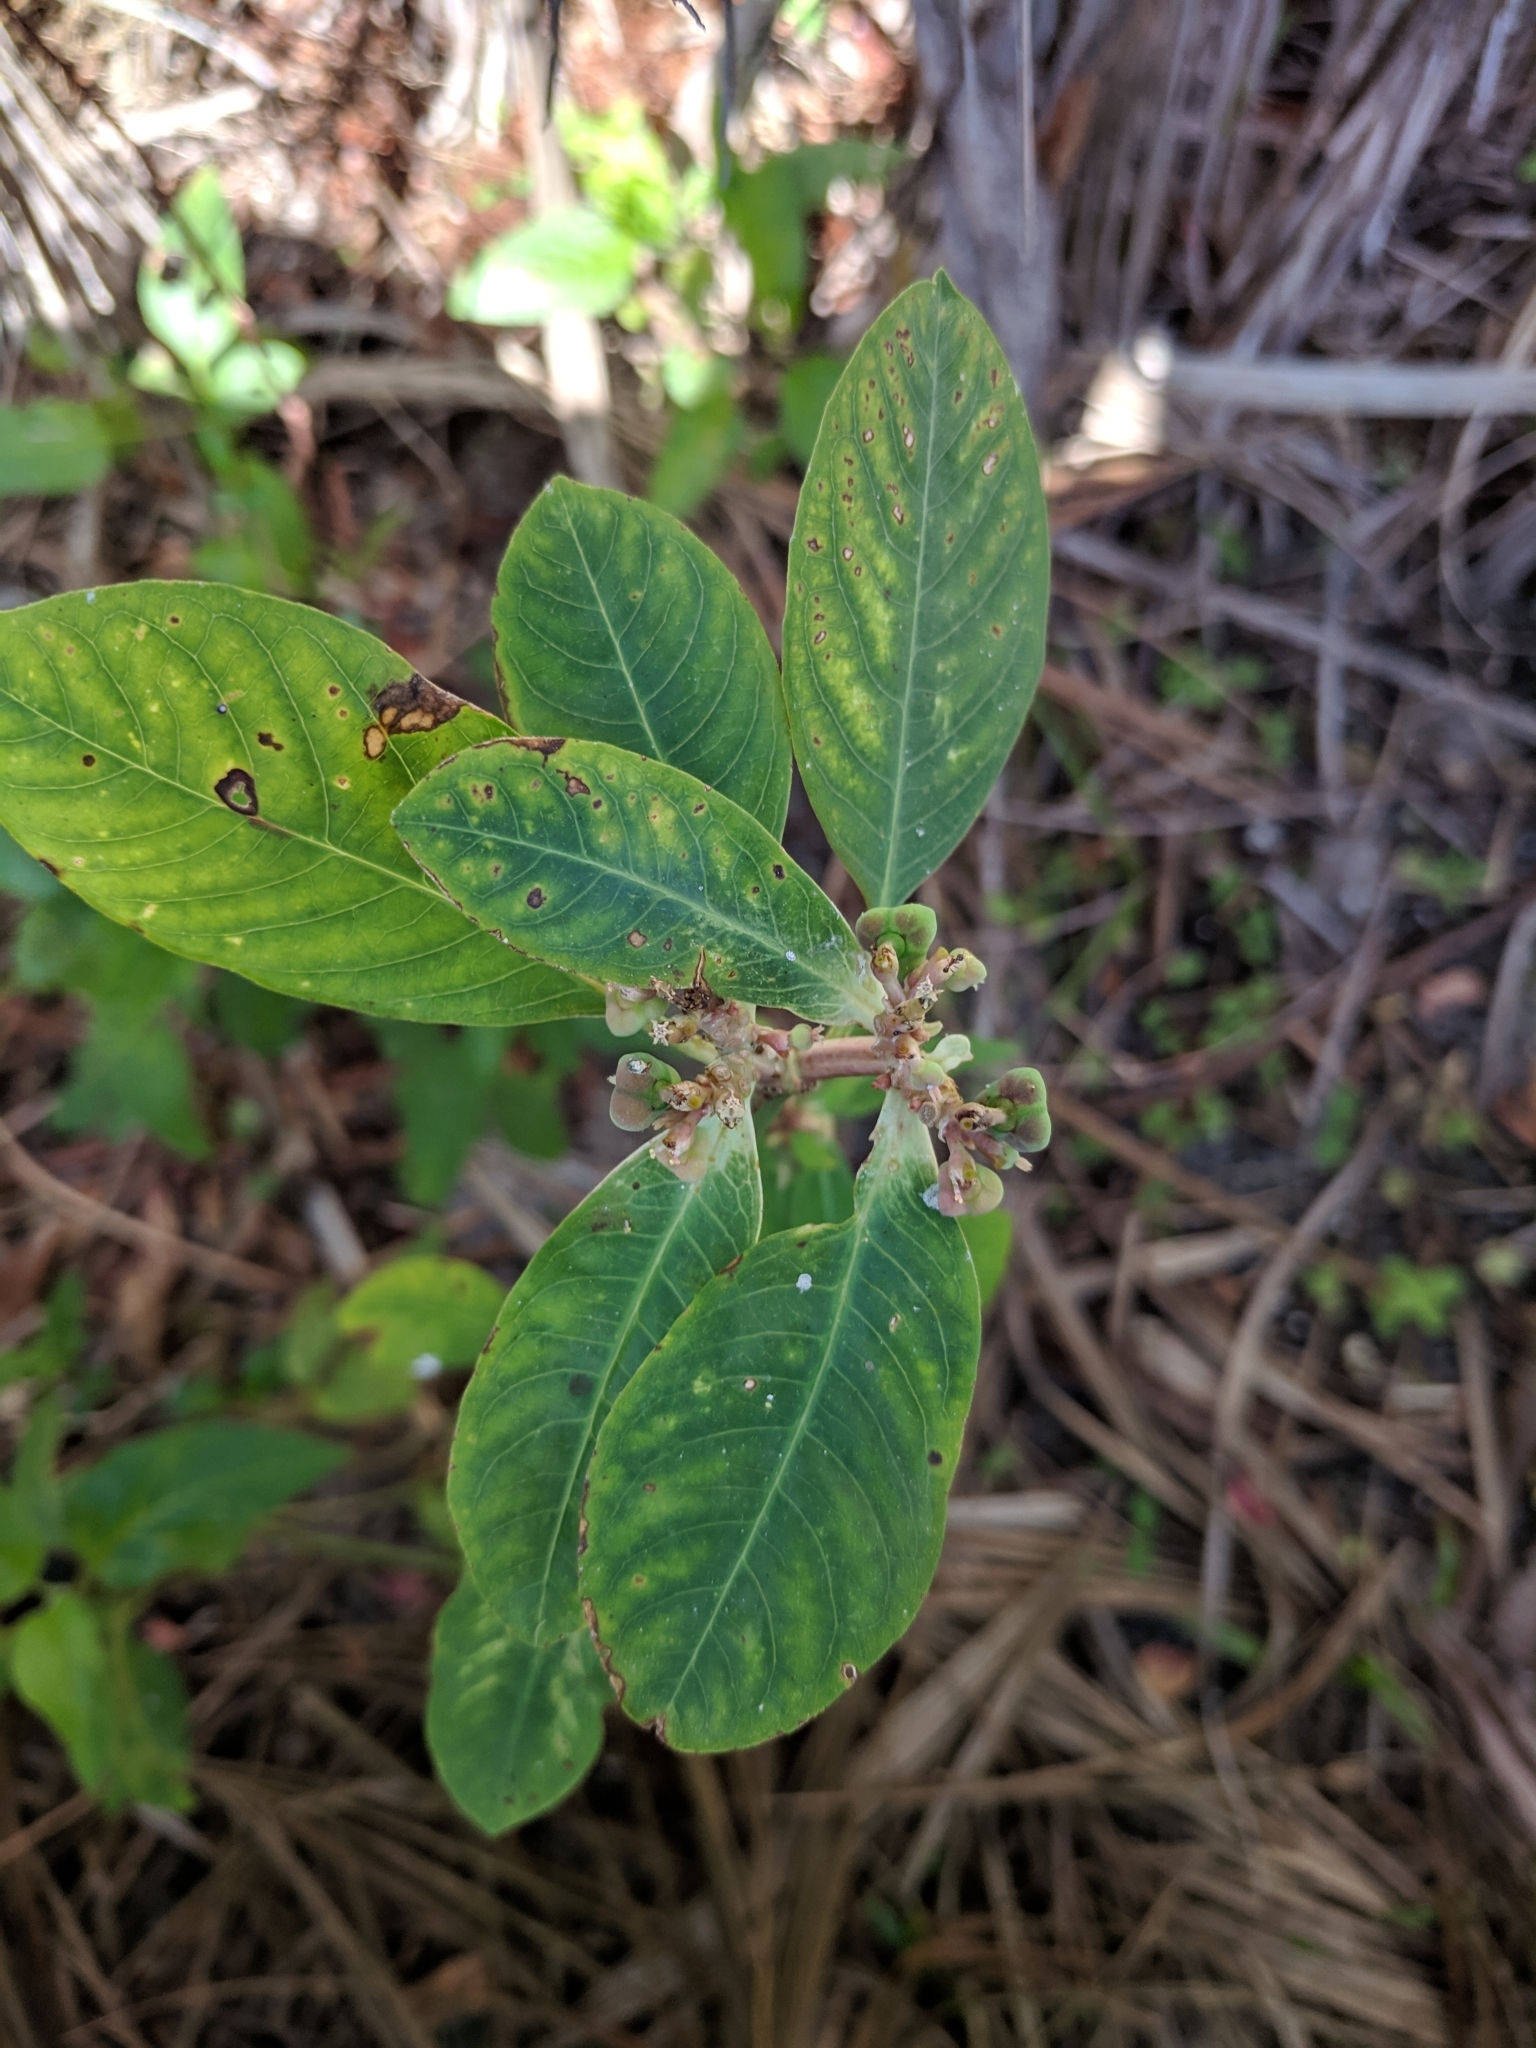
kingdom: Plantae
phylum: Tracheophyta
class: Magnoliopsida
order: Malpighiales
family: Euphorbiaceae
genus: Euphorbia
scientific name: Euphorbia heterophylla
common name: Mexican fireplant
